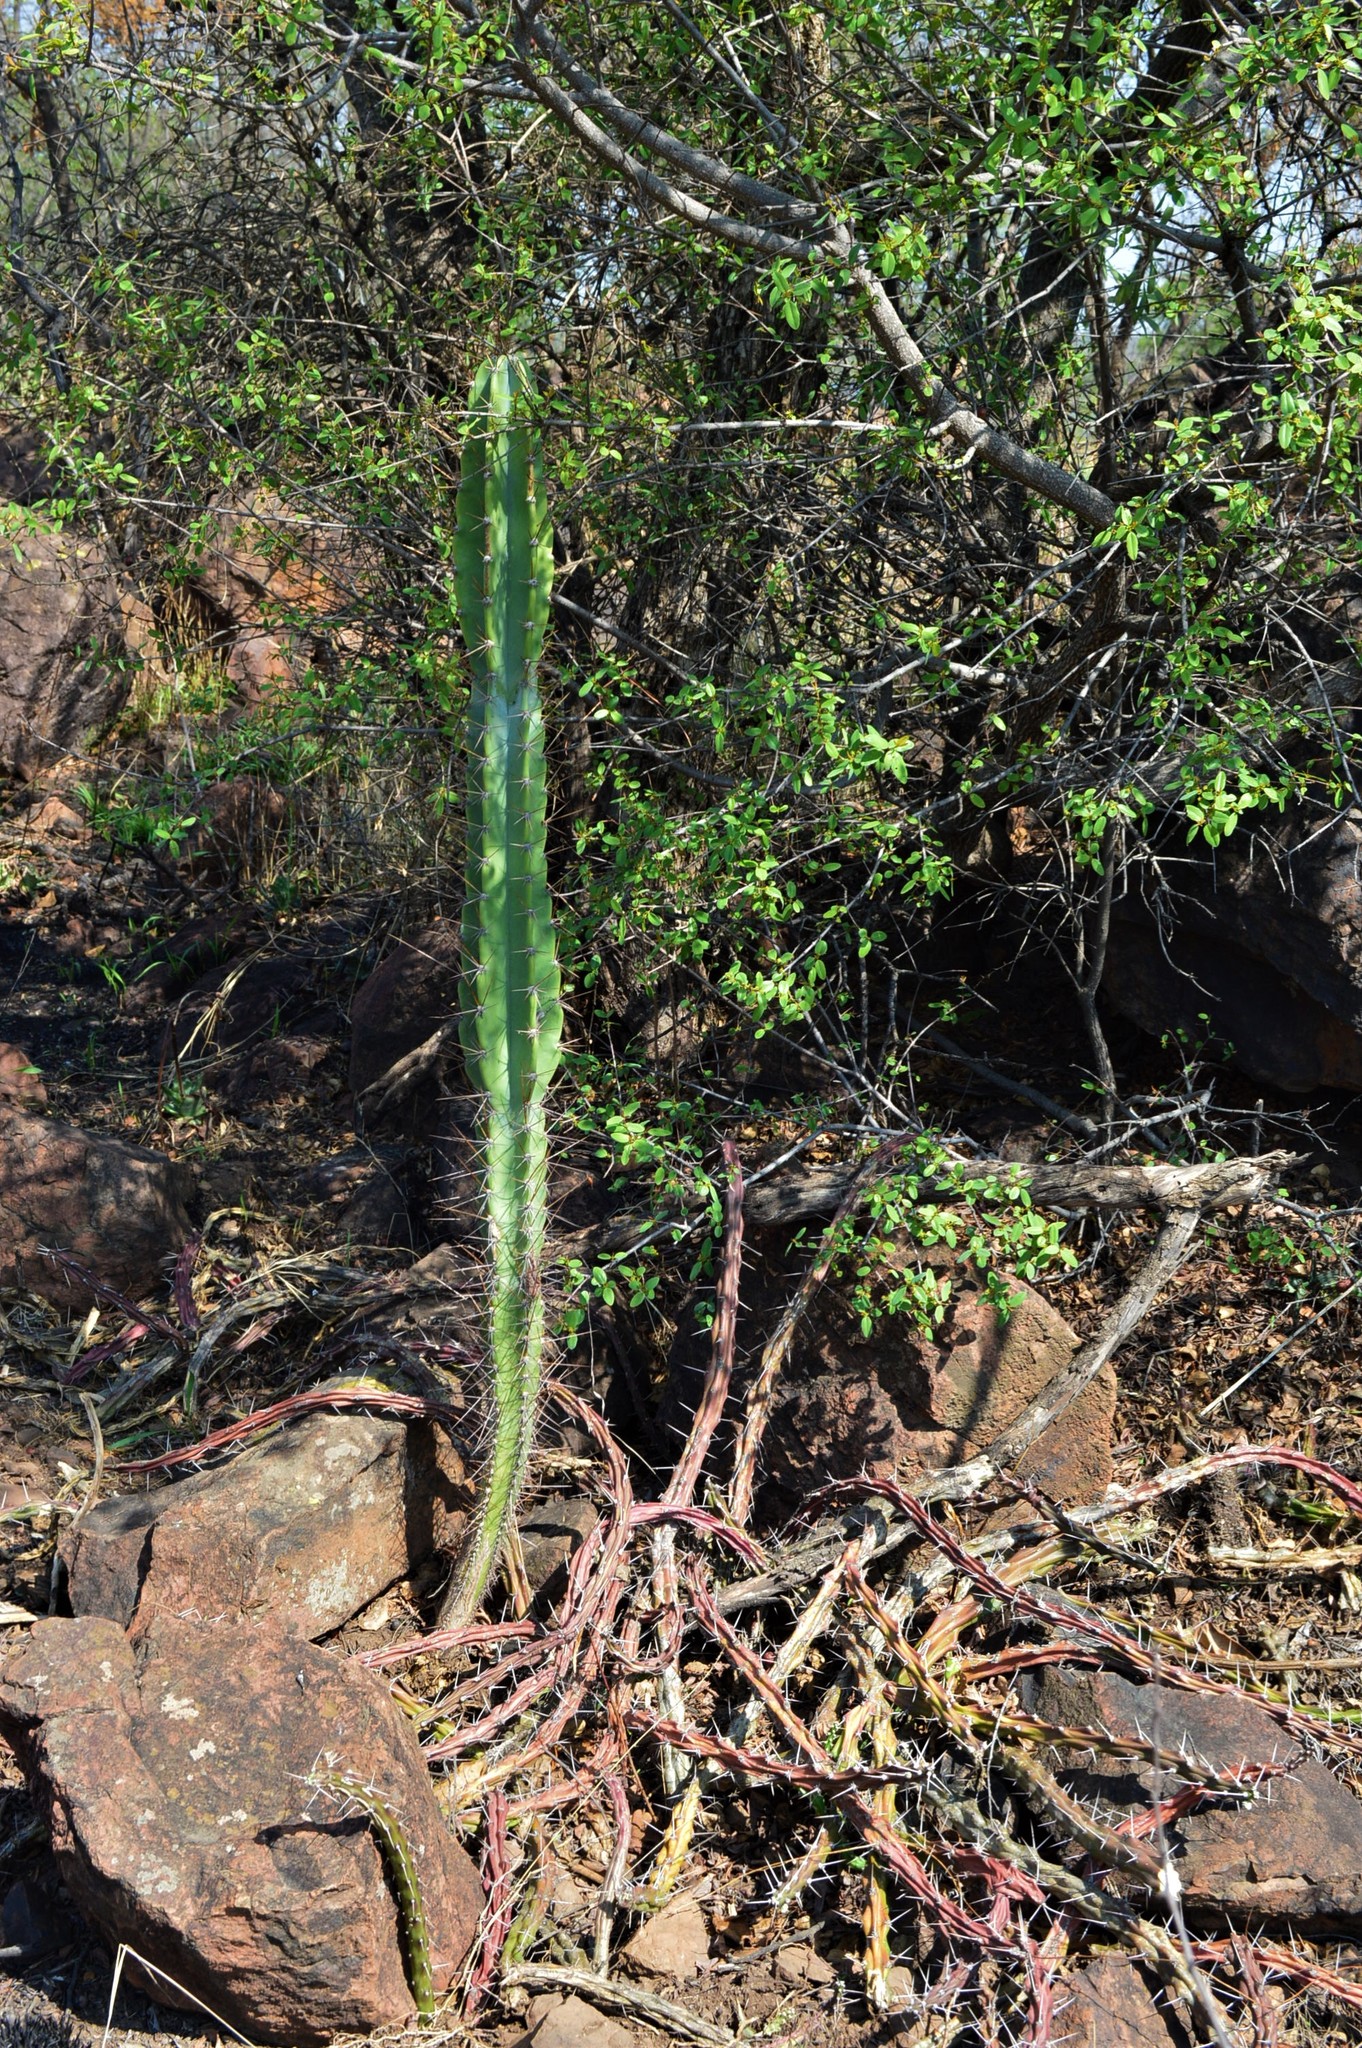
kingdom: Plantae
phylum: Tracheophyta
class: Magnoliopsida
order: Caryophyllales
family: Cactaceae
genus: Cereus
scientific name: Cereus jamacaru
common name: Queen-of-the-night
